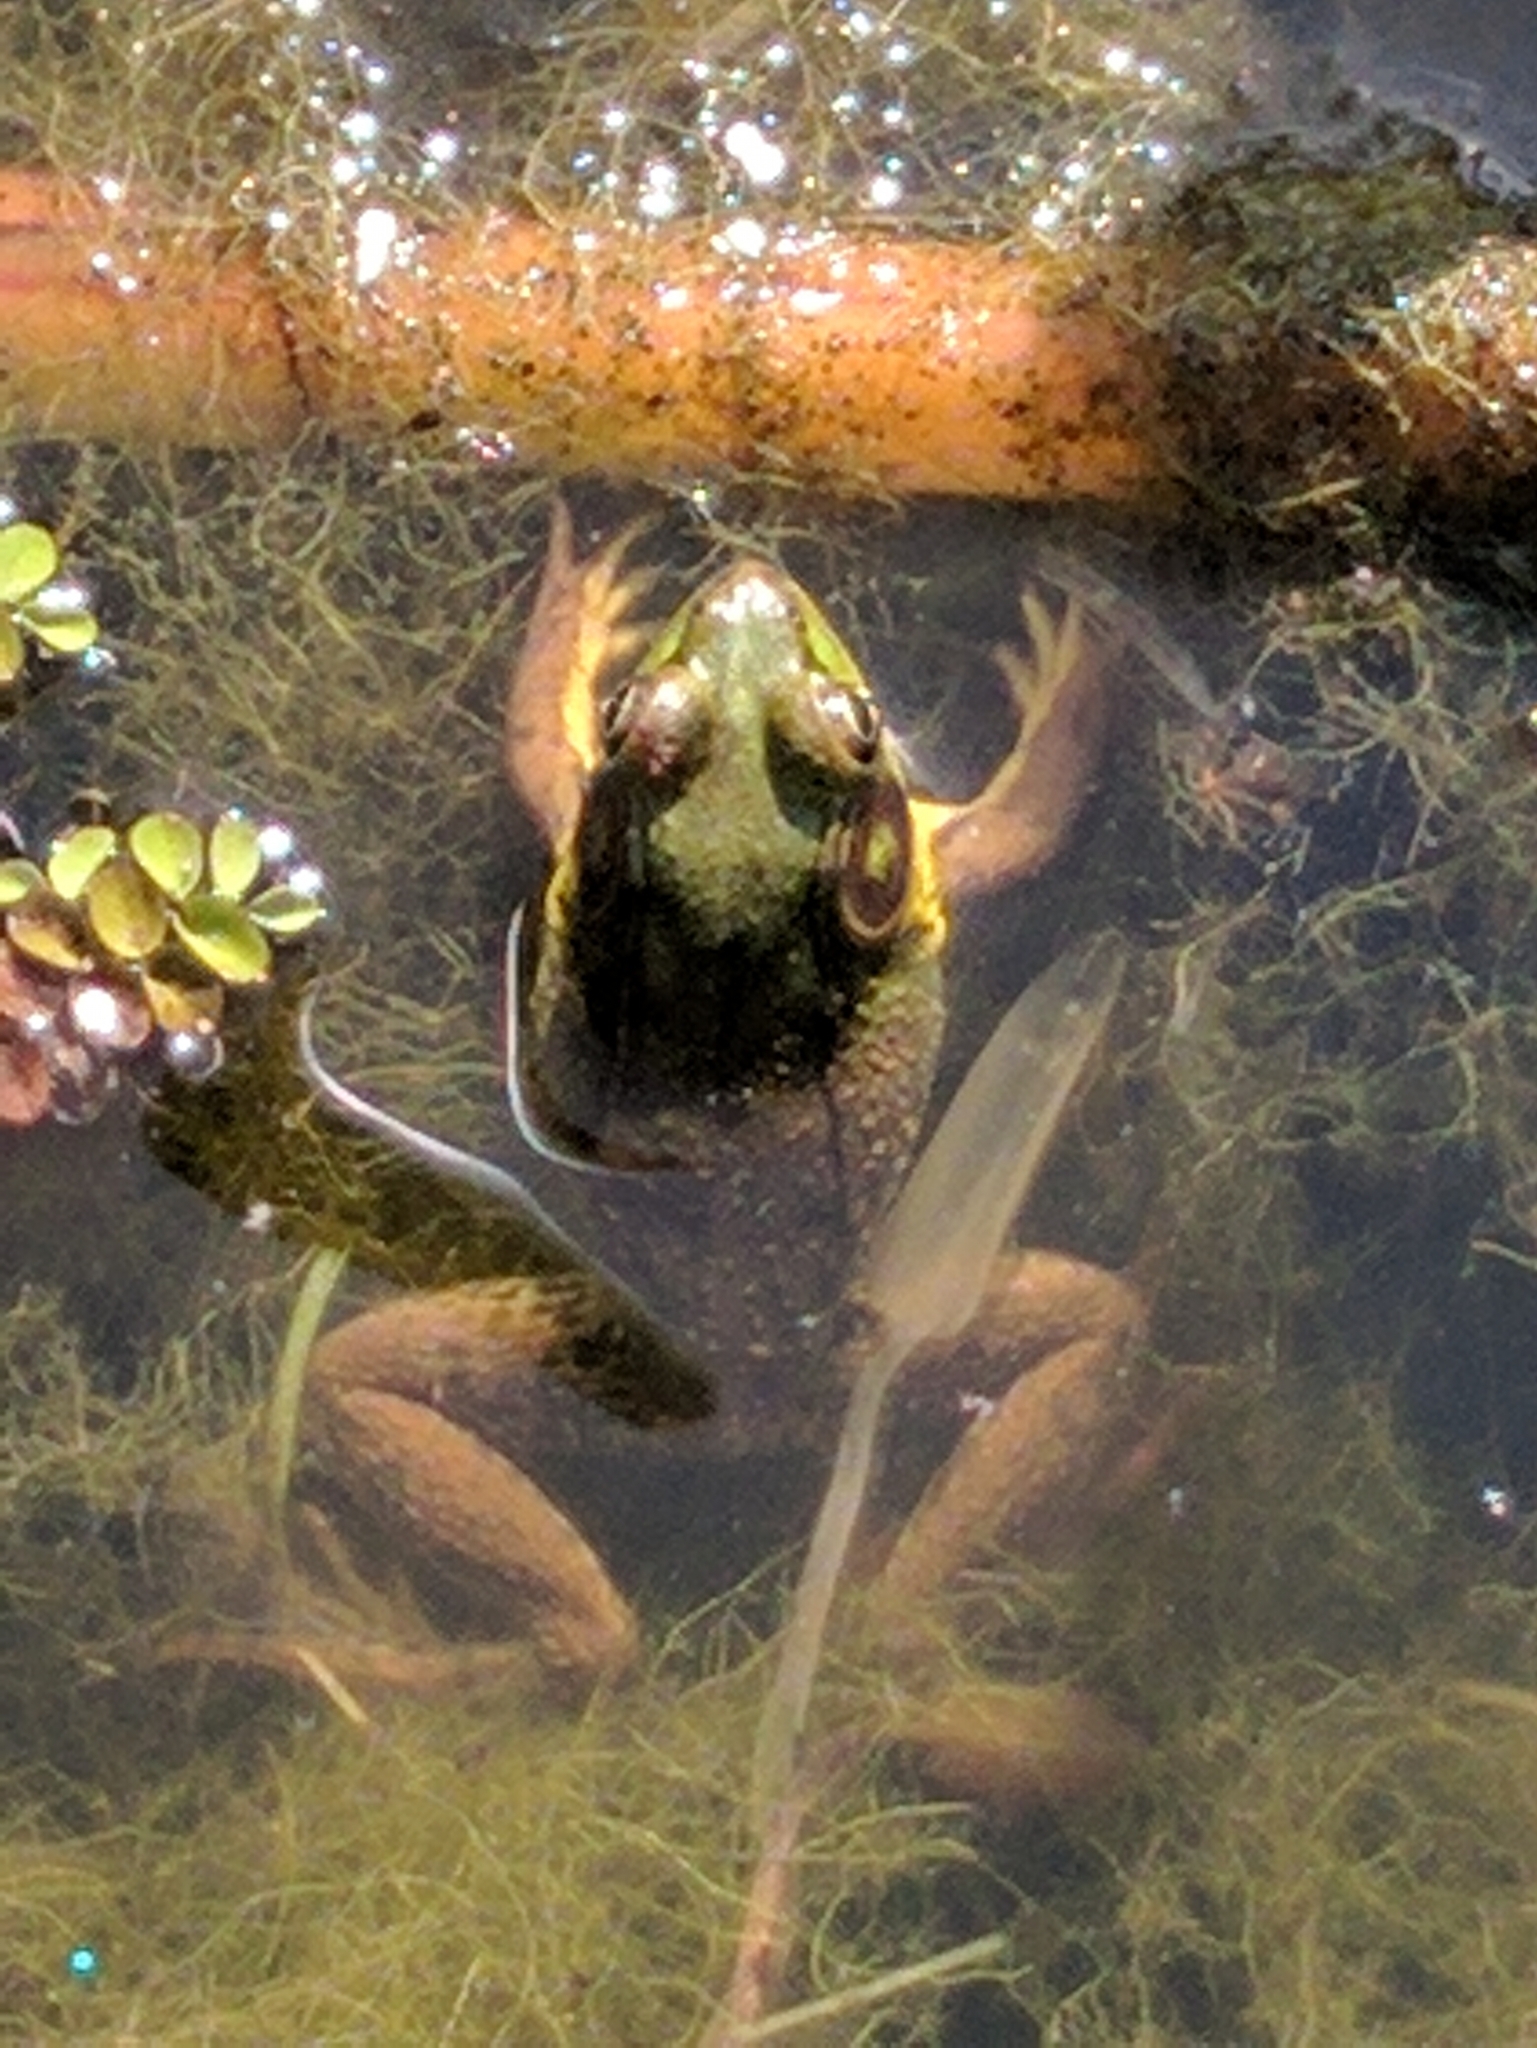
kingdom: Animalia
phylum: Chordata
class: Amphibia
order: Anura
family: Ranidae
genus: Lithobates
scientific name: Lithobates clamitans
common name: Green frog
